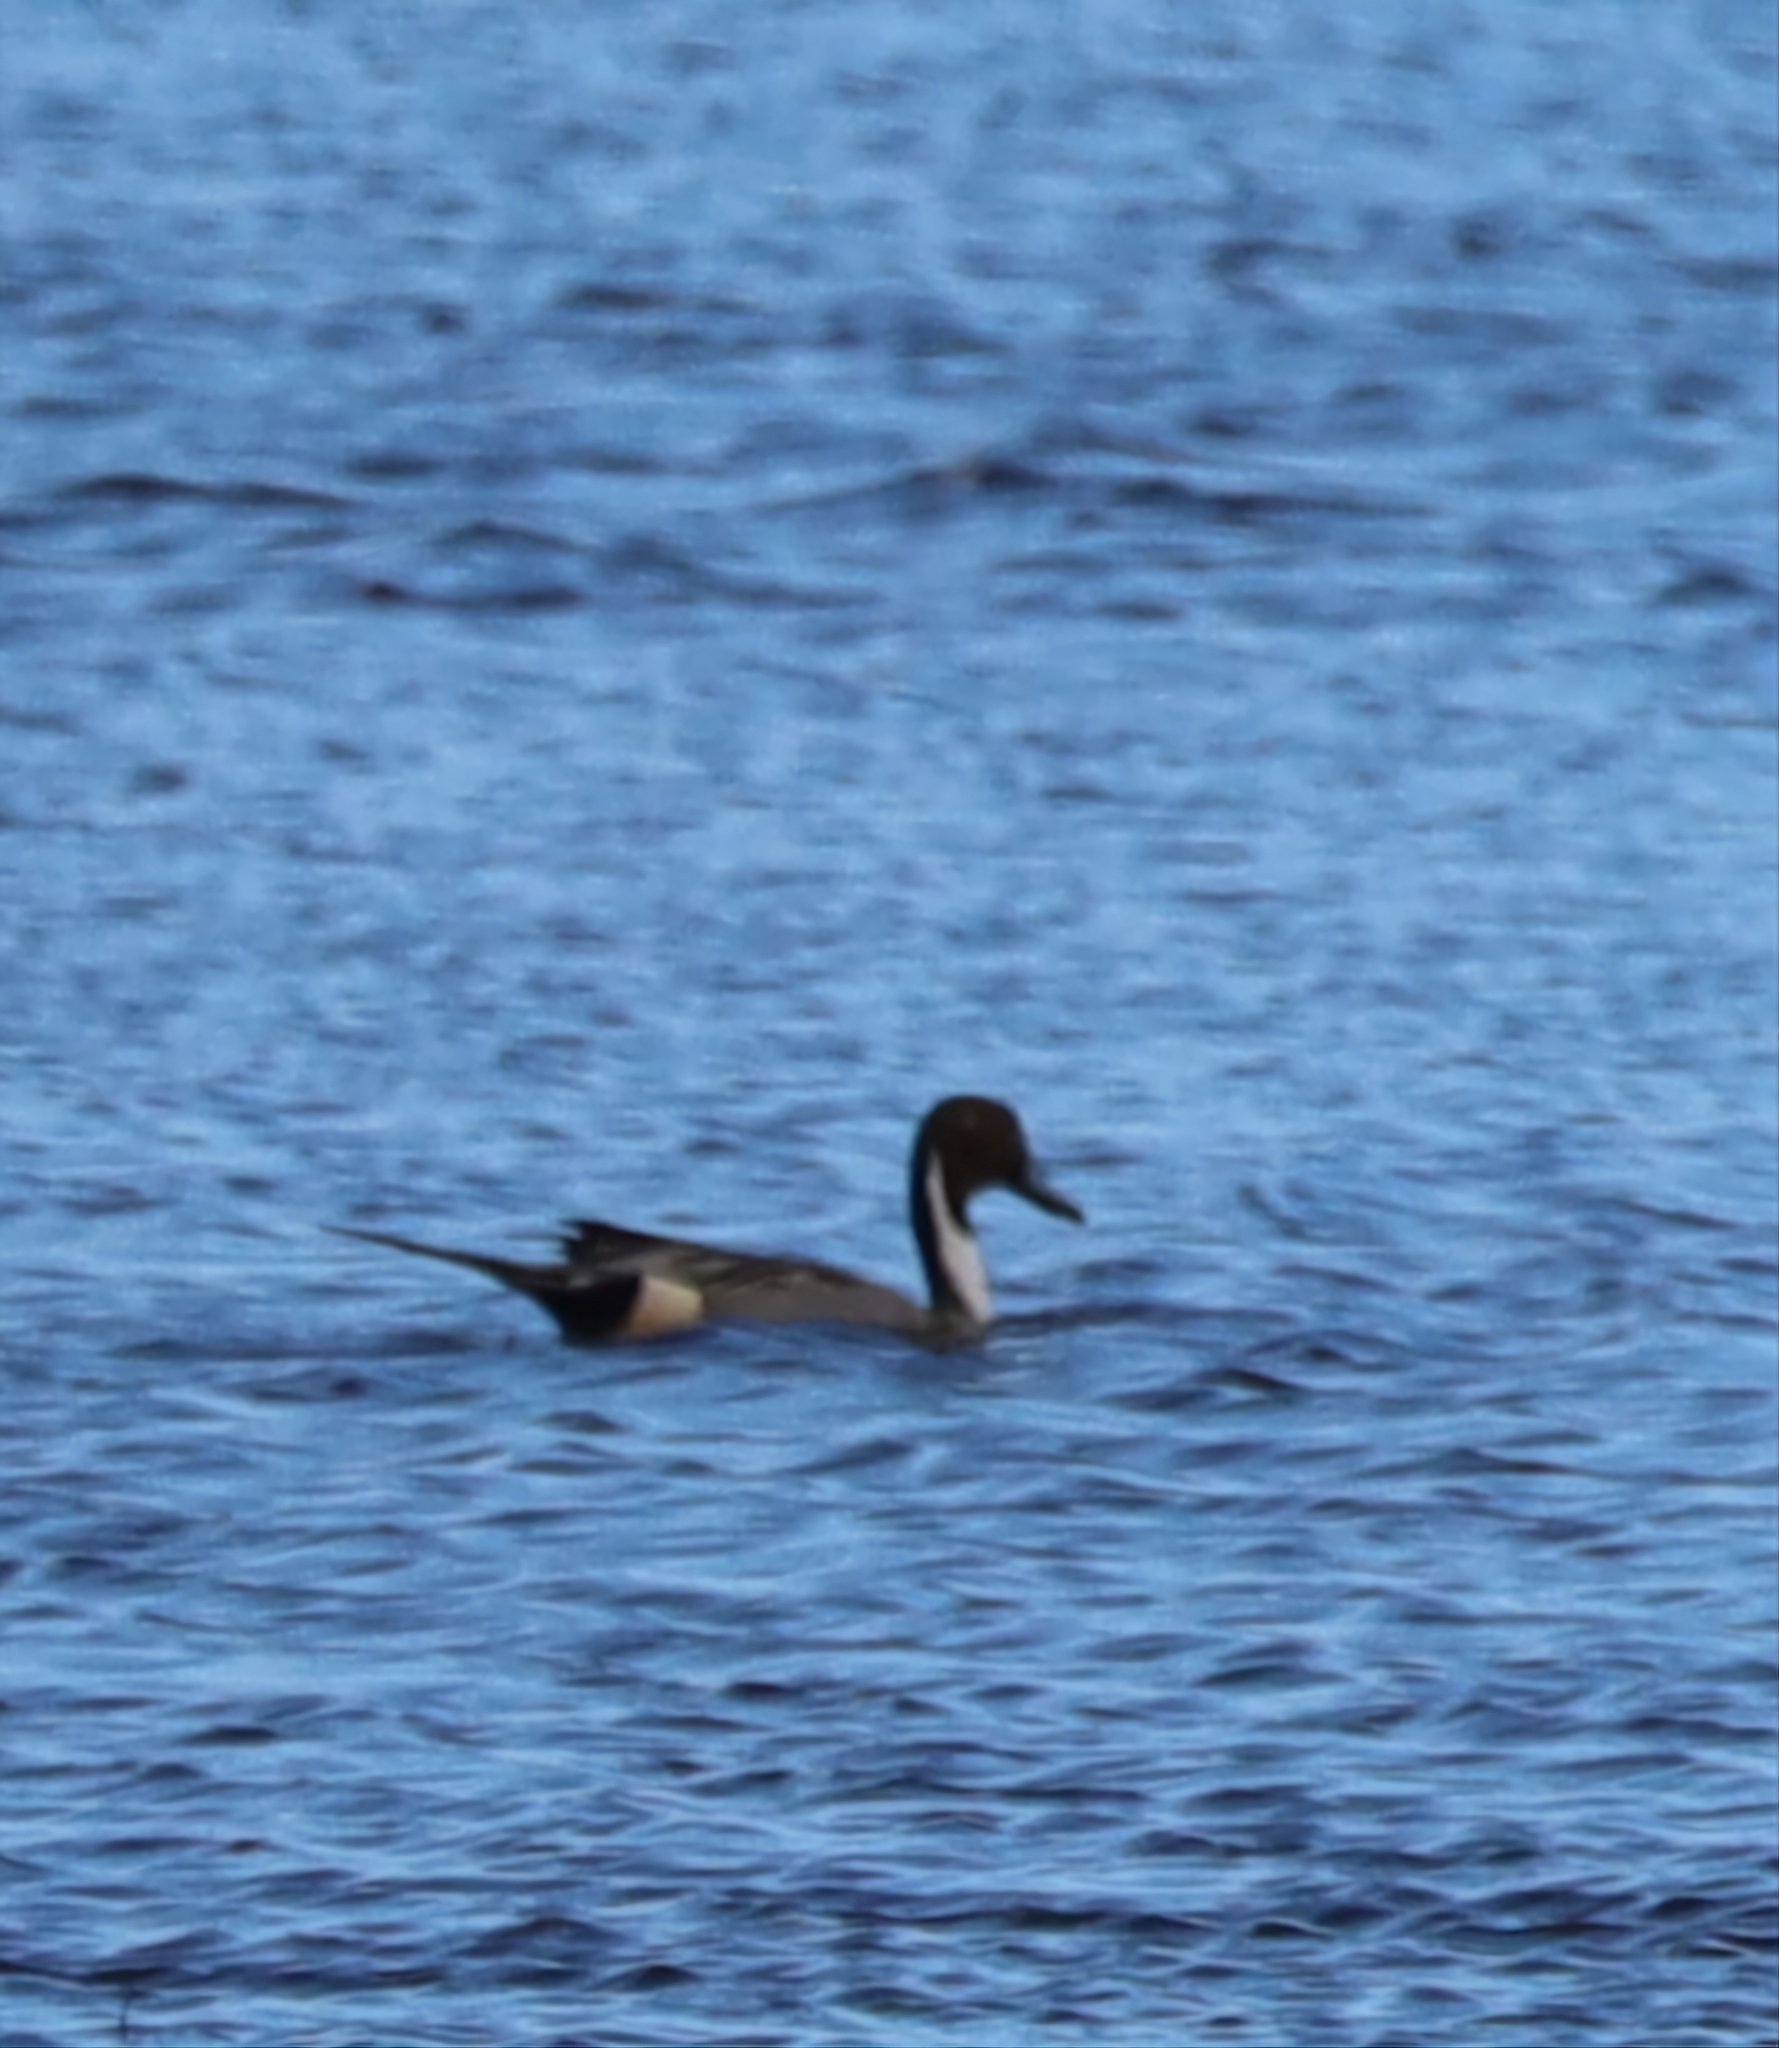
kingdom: Animalia
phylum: Chordata
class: Aves
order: Anseriformes
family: Anatidae
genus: Anas
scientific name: Anas acuta
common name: Northern pintail
